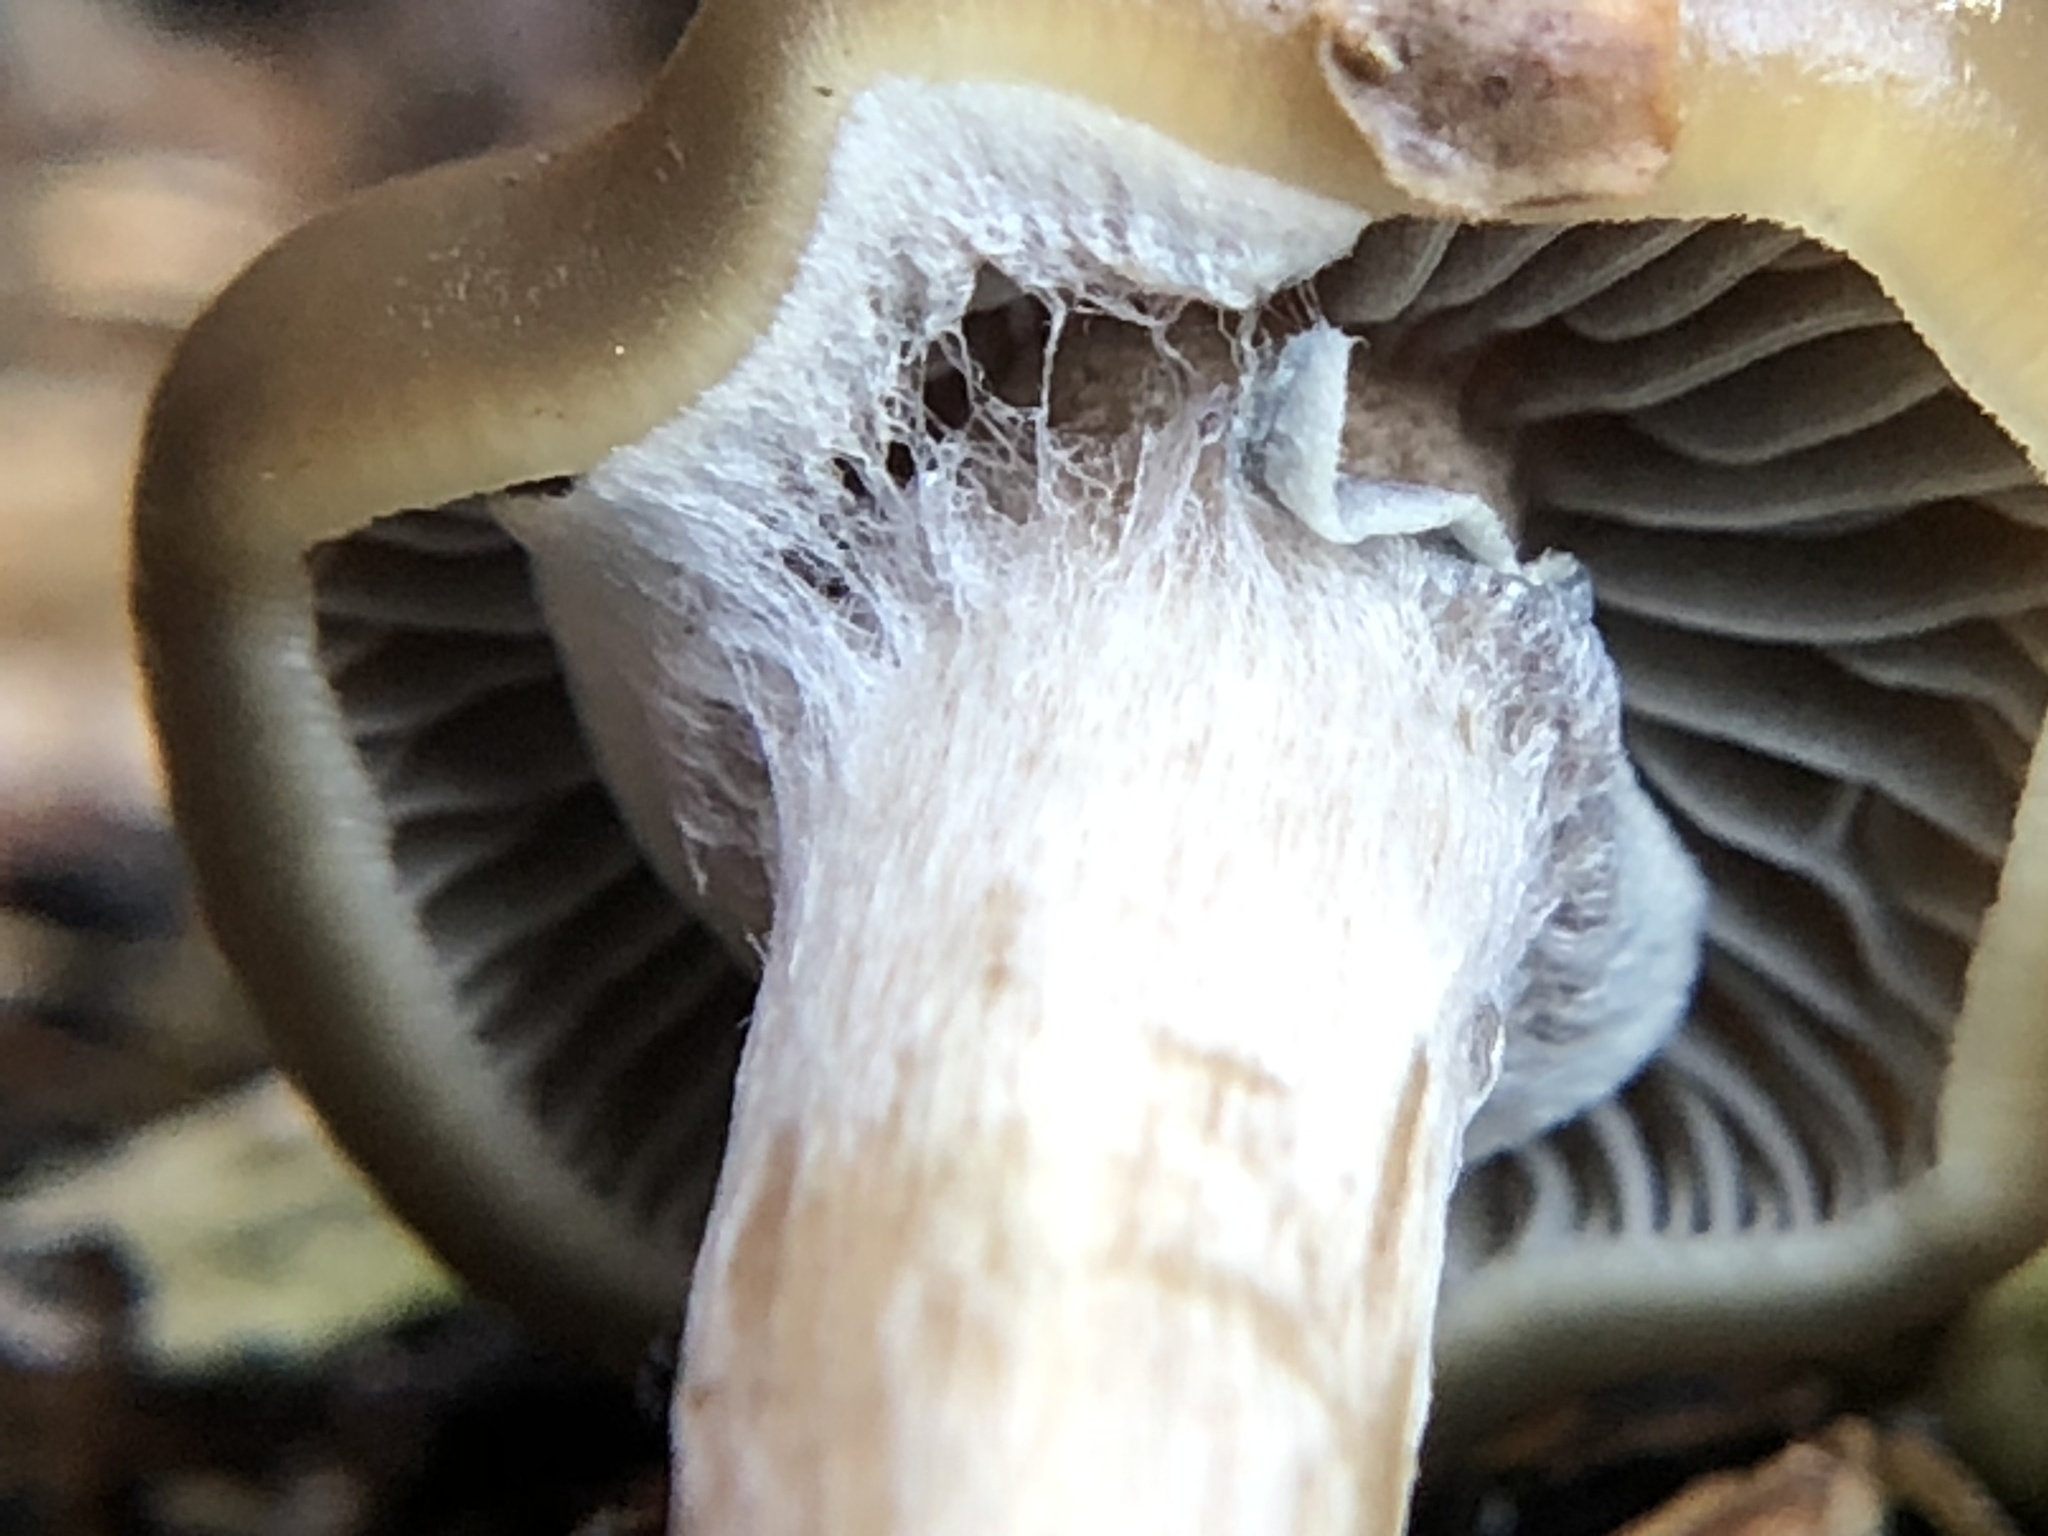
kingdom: Fungi
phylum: Basidiomycota
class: Agaricomycetes
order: Agaricales
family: Hymenogastraceae
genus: Psilocybe
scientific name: Psilocybe stuntzii
